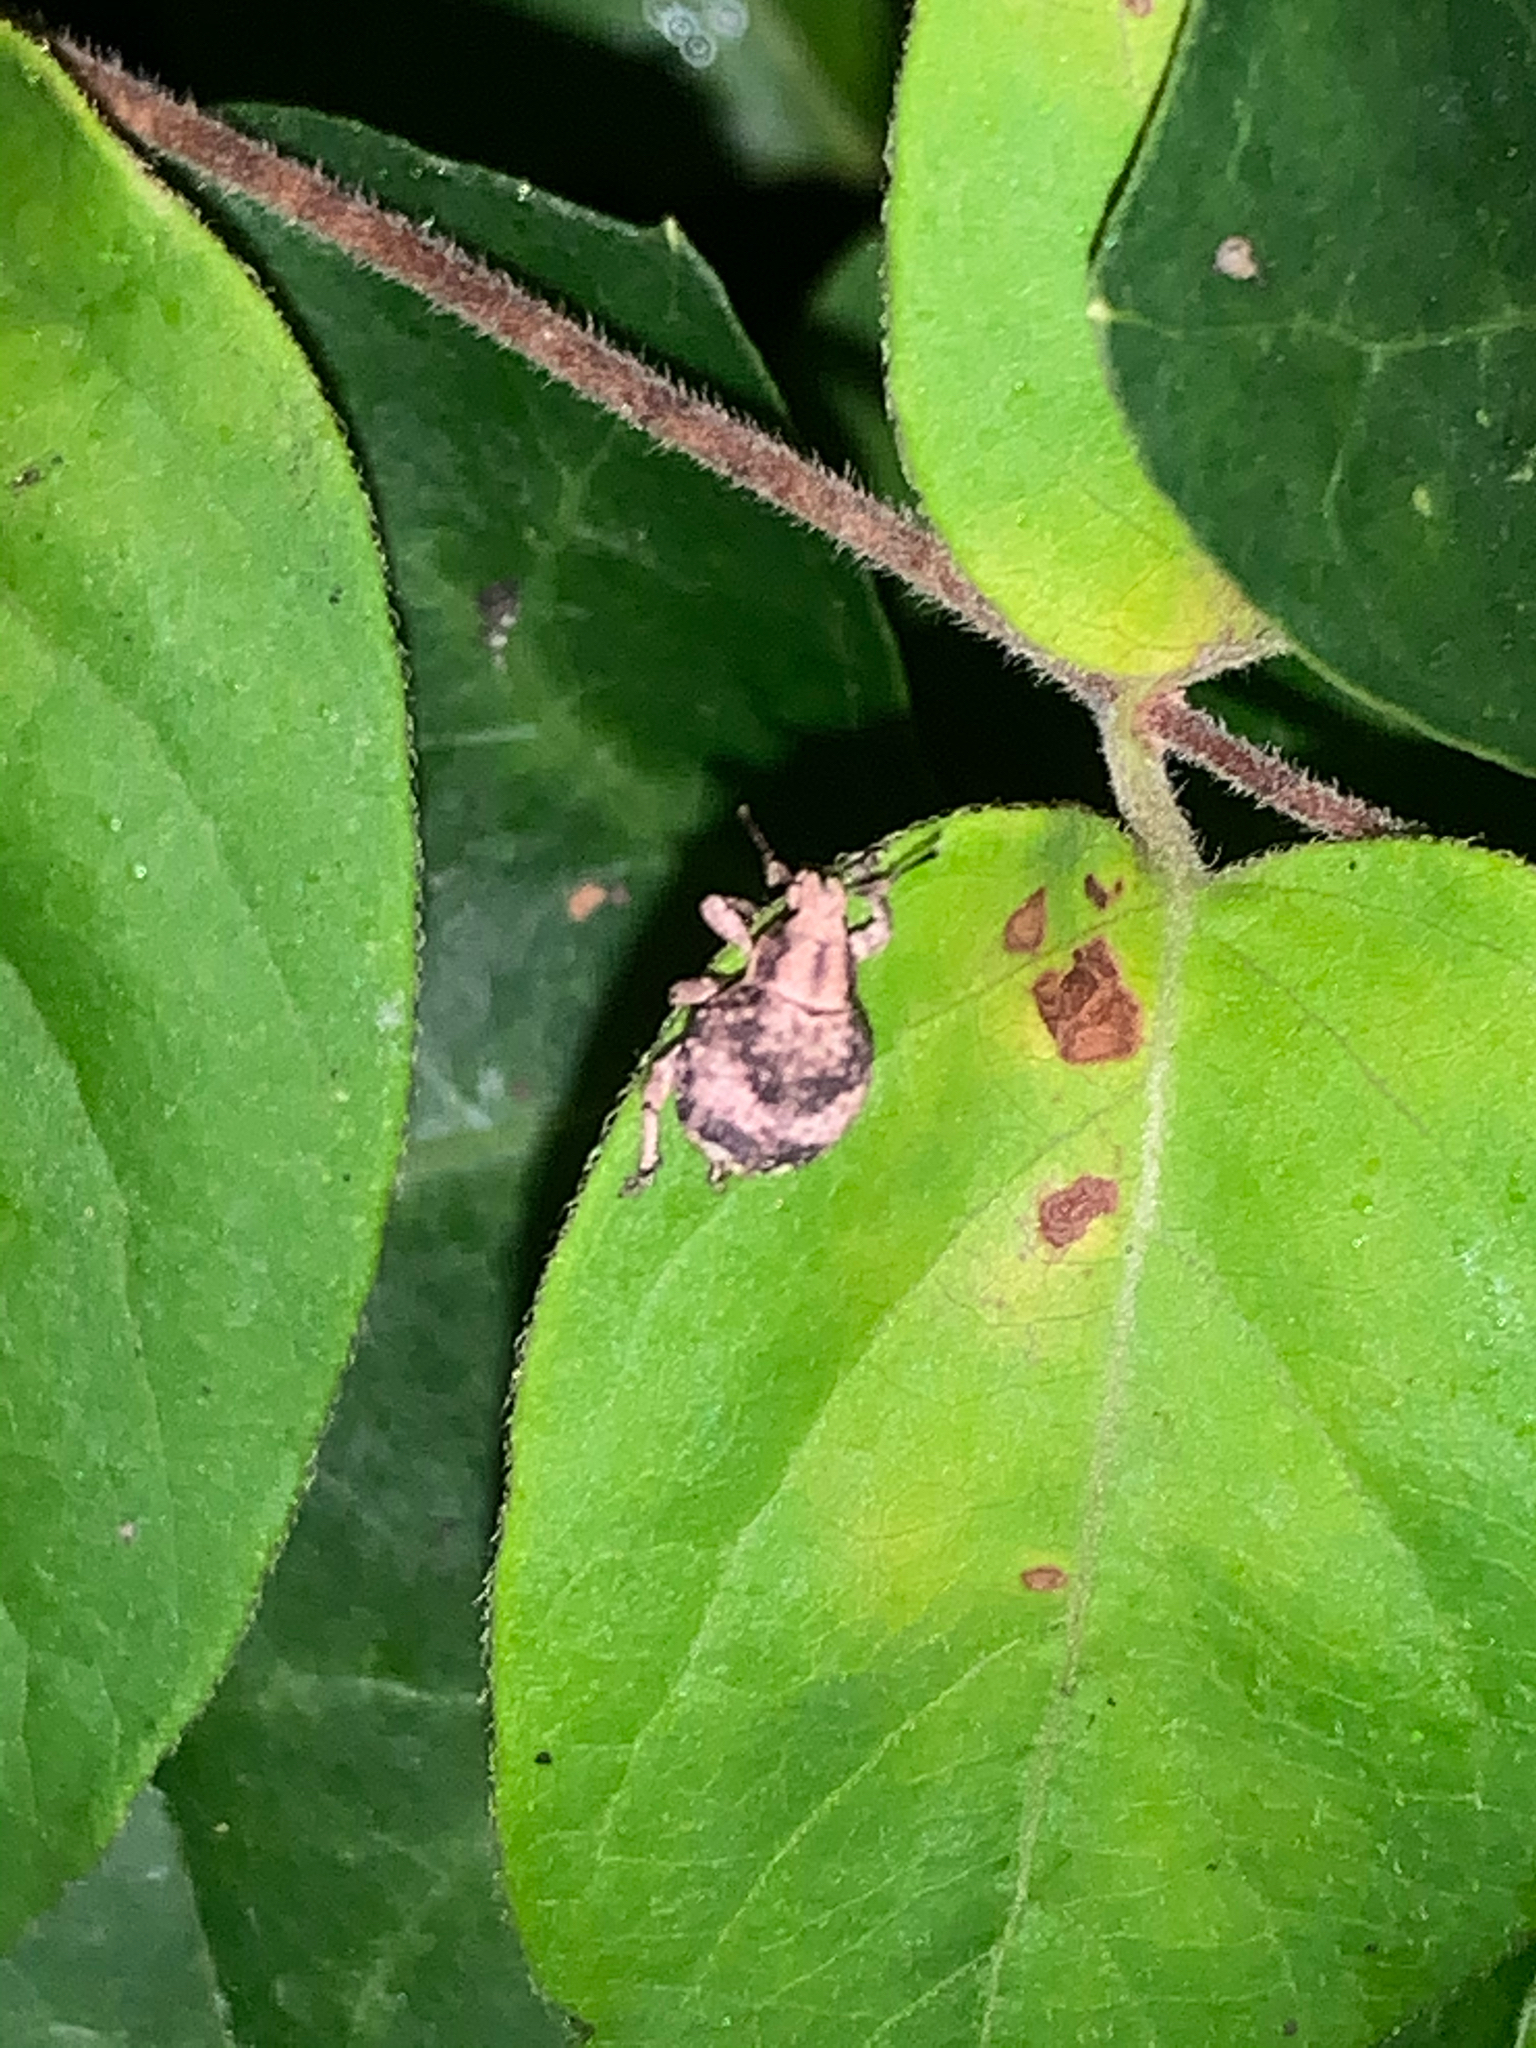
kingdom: Animalia
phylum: Arthropoda
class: Insecta
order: Coleoptera
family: Curculionidae
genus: Pseudocneorhinus
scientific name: Pseudocneorhinus bifasciatus
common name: Two-banded japanese weevil
